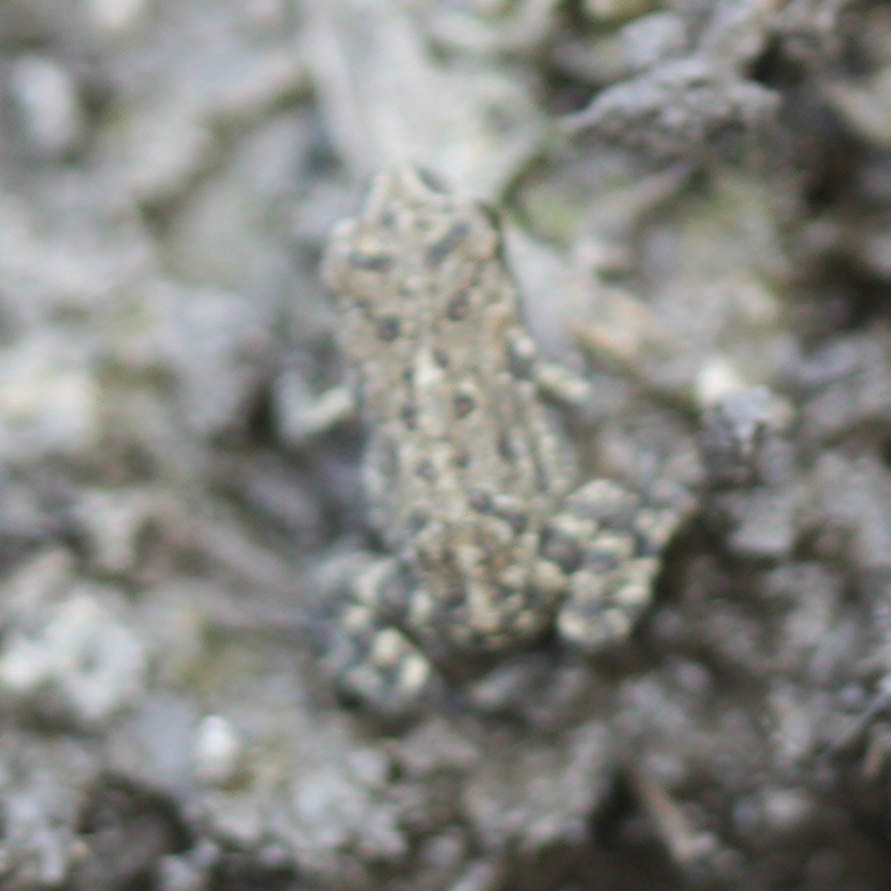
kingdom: Animalia
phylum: Chordata
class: Amphibia
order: Anura
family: Bufonidae
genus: Anaxyrus
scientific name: Anaxyrus americanus
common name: American toad
